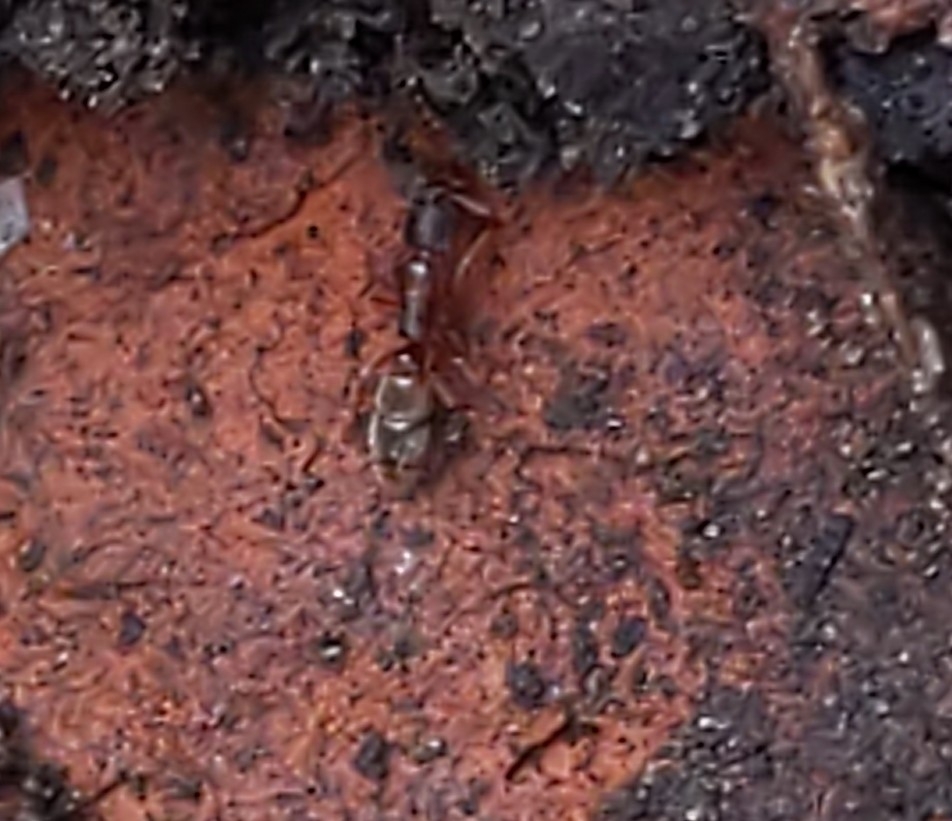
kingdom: Animalia
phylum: Arthropoda
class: Insecta
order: Hymenoptera
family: Formicidae
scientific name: Formicidae
